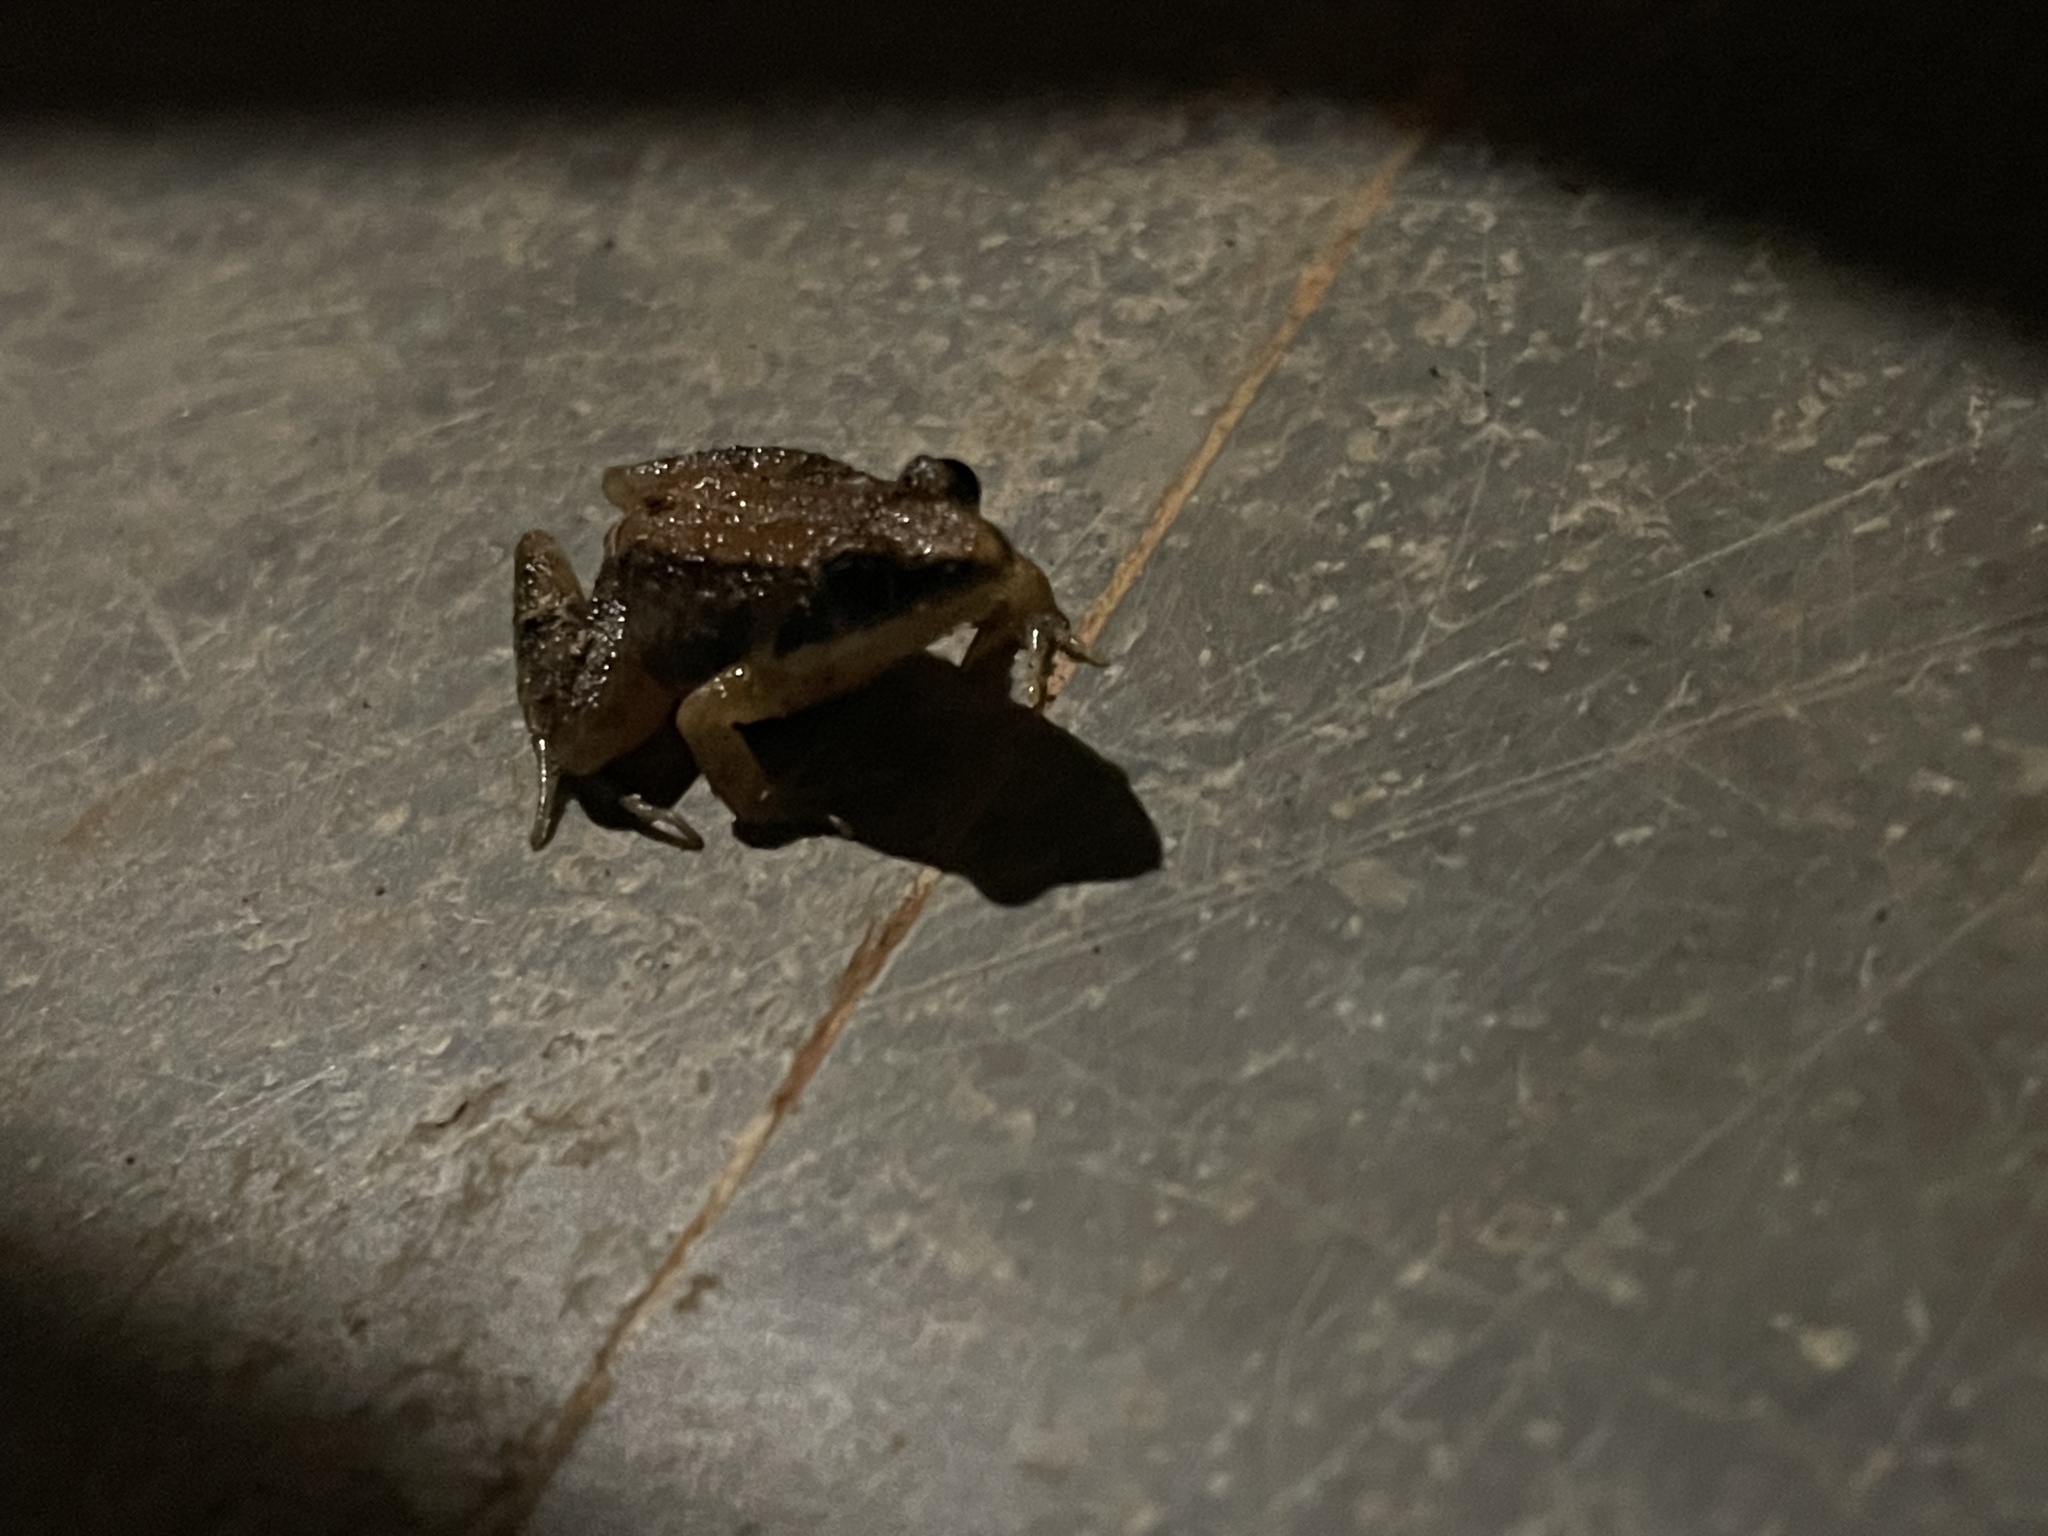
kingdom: Animalia
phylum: Chordata
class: Amphibia
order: Anura
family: Dicroglossidae
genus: Minervarya
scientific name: Minervarya gomantaki
